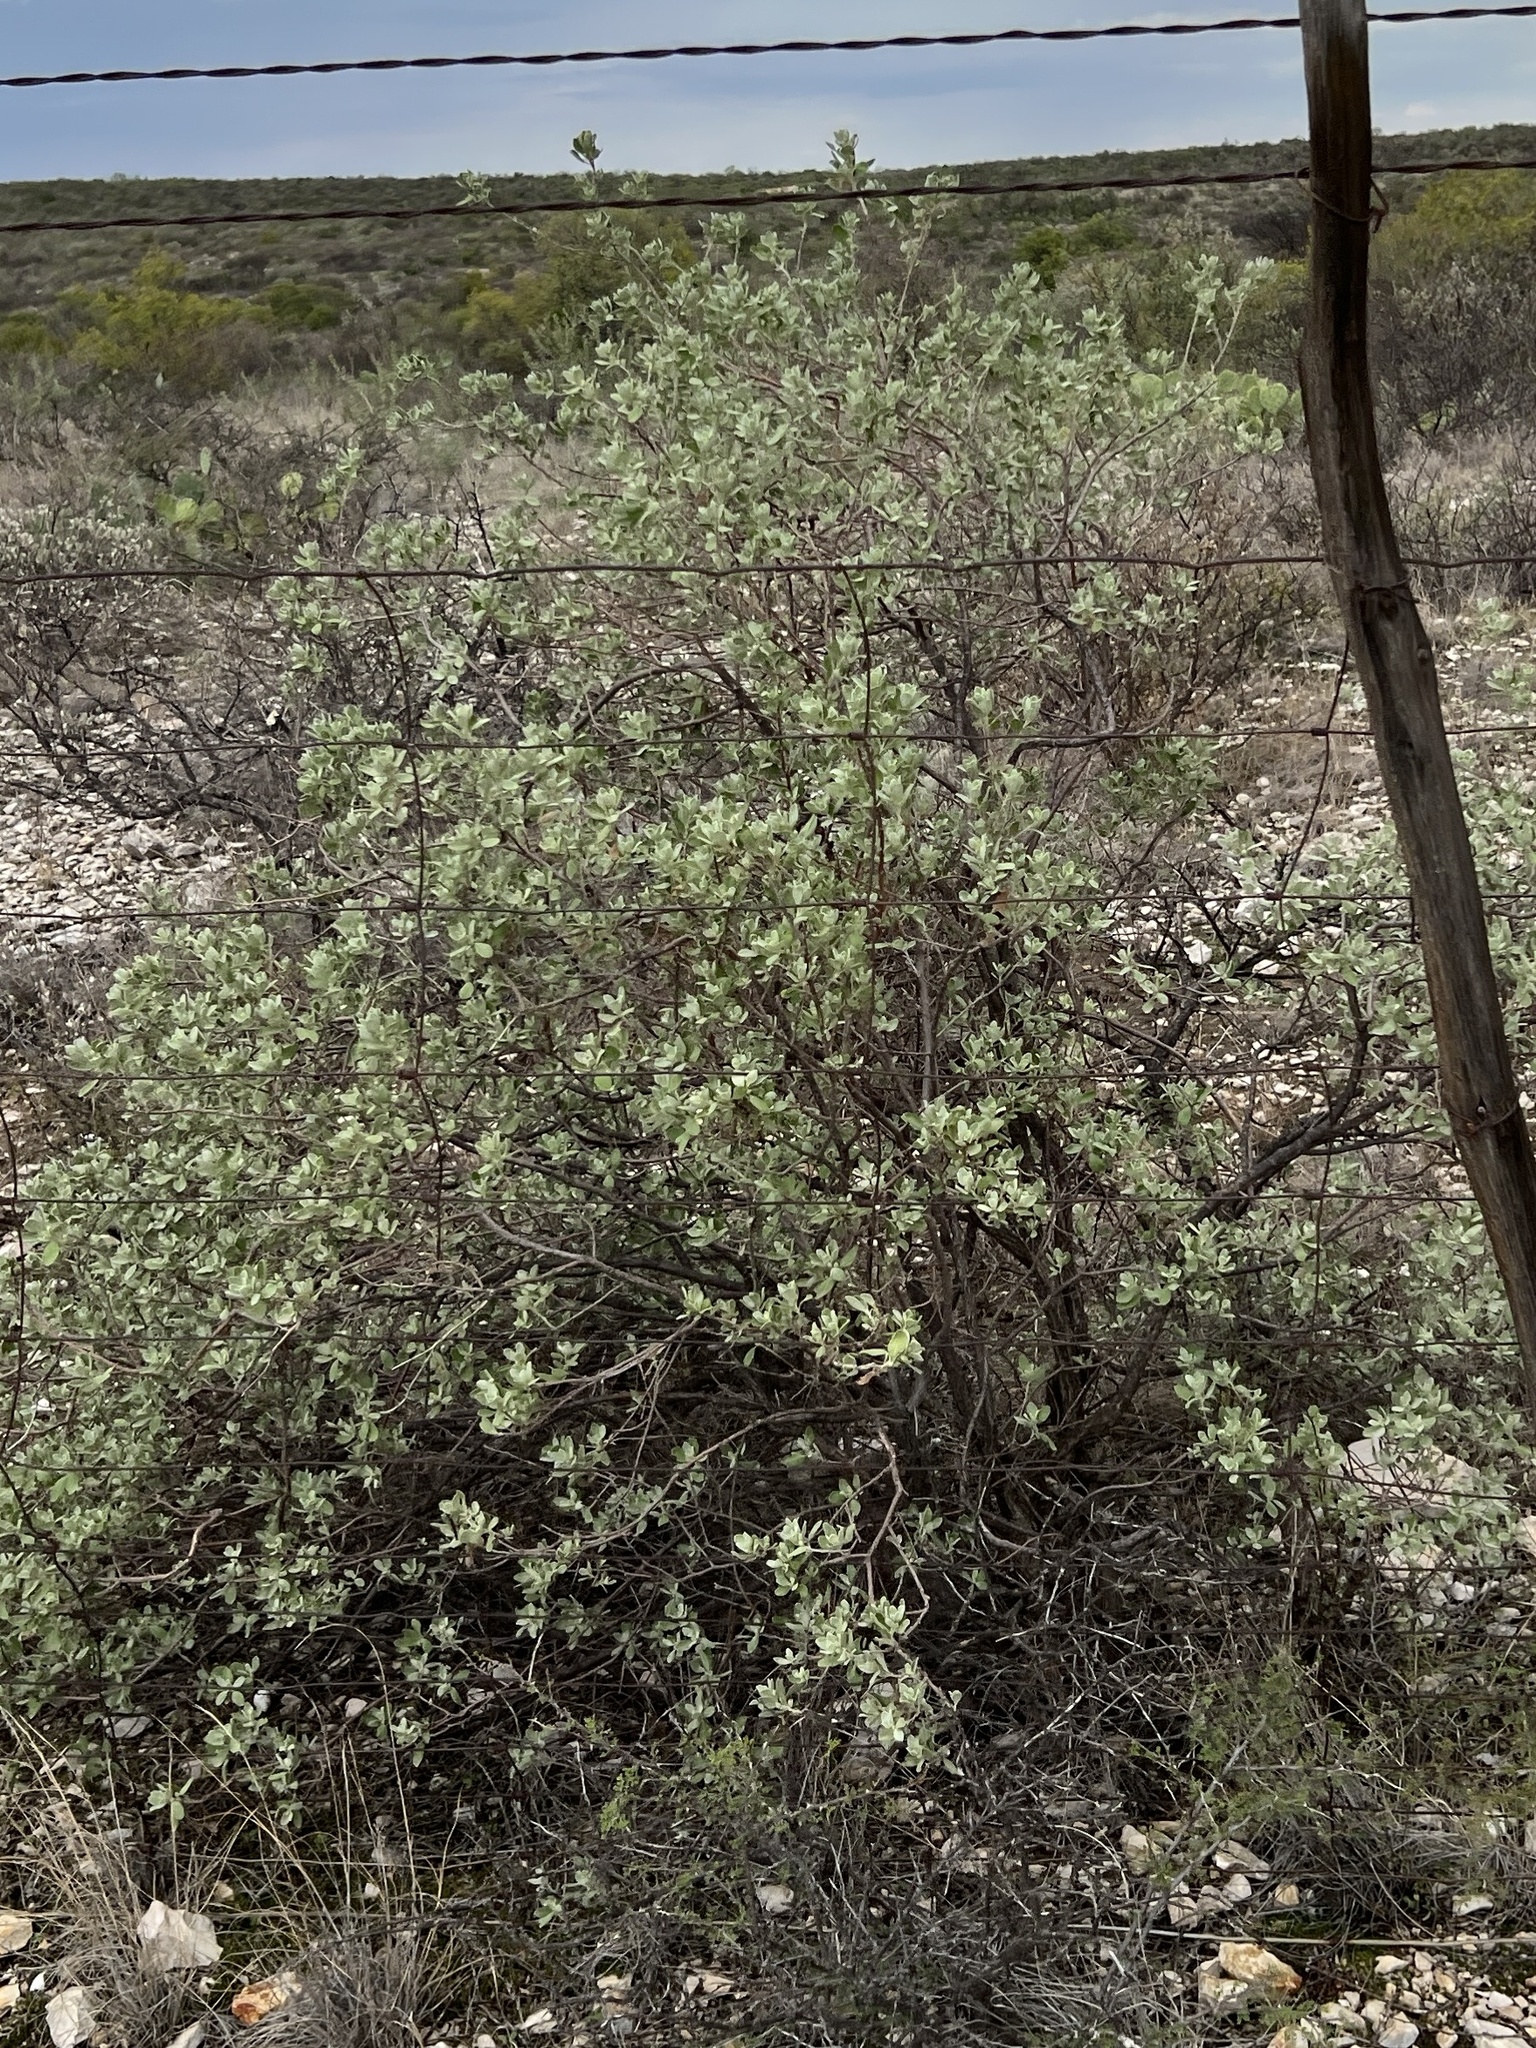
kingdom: Plantae
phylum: Tracheophyta
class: Magnoliopsida
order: Lamiales
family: Scrophulariaceae
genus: Leucophyllum
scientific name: Leucophyllum frutescens
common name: Texas silverleaf
